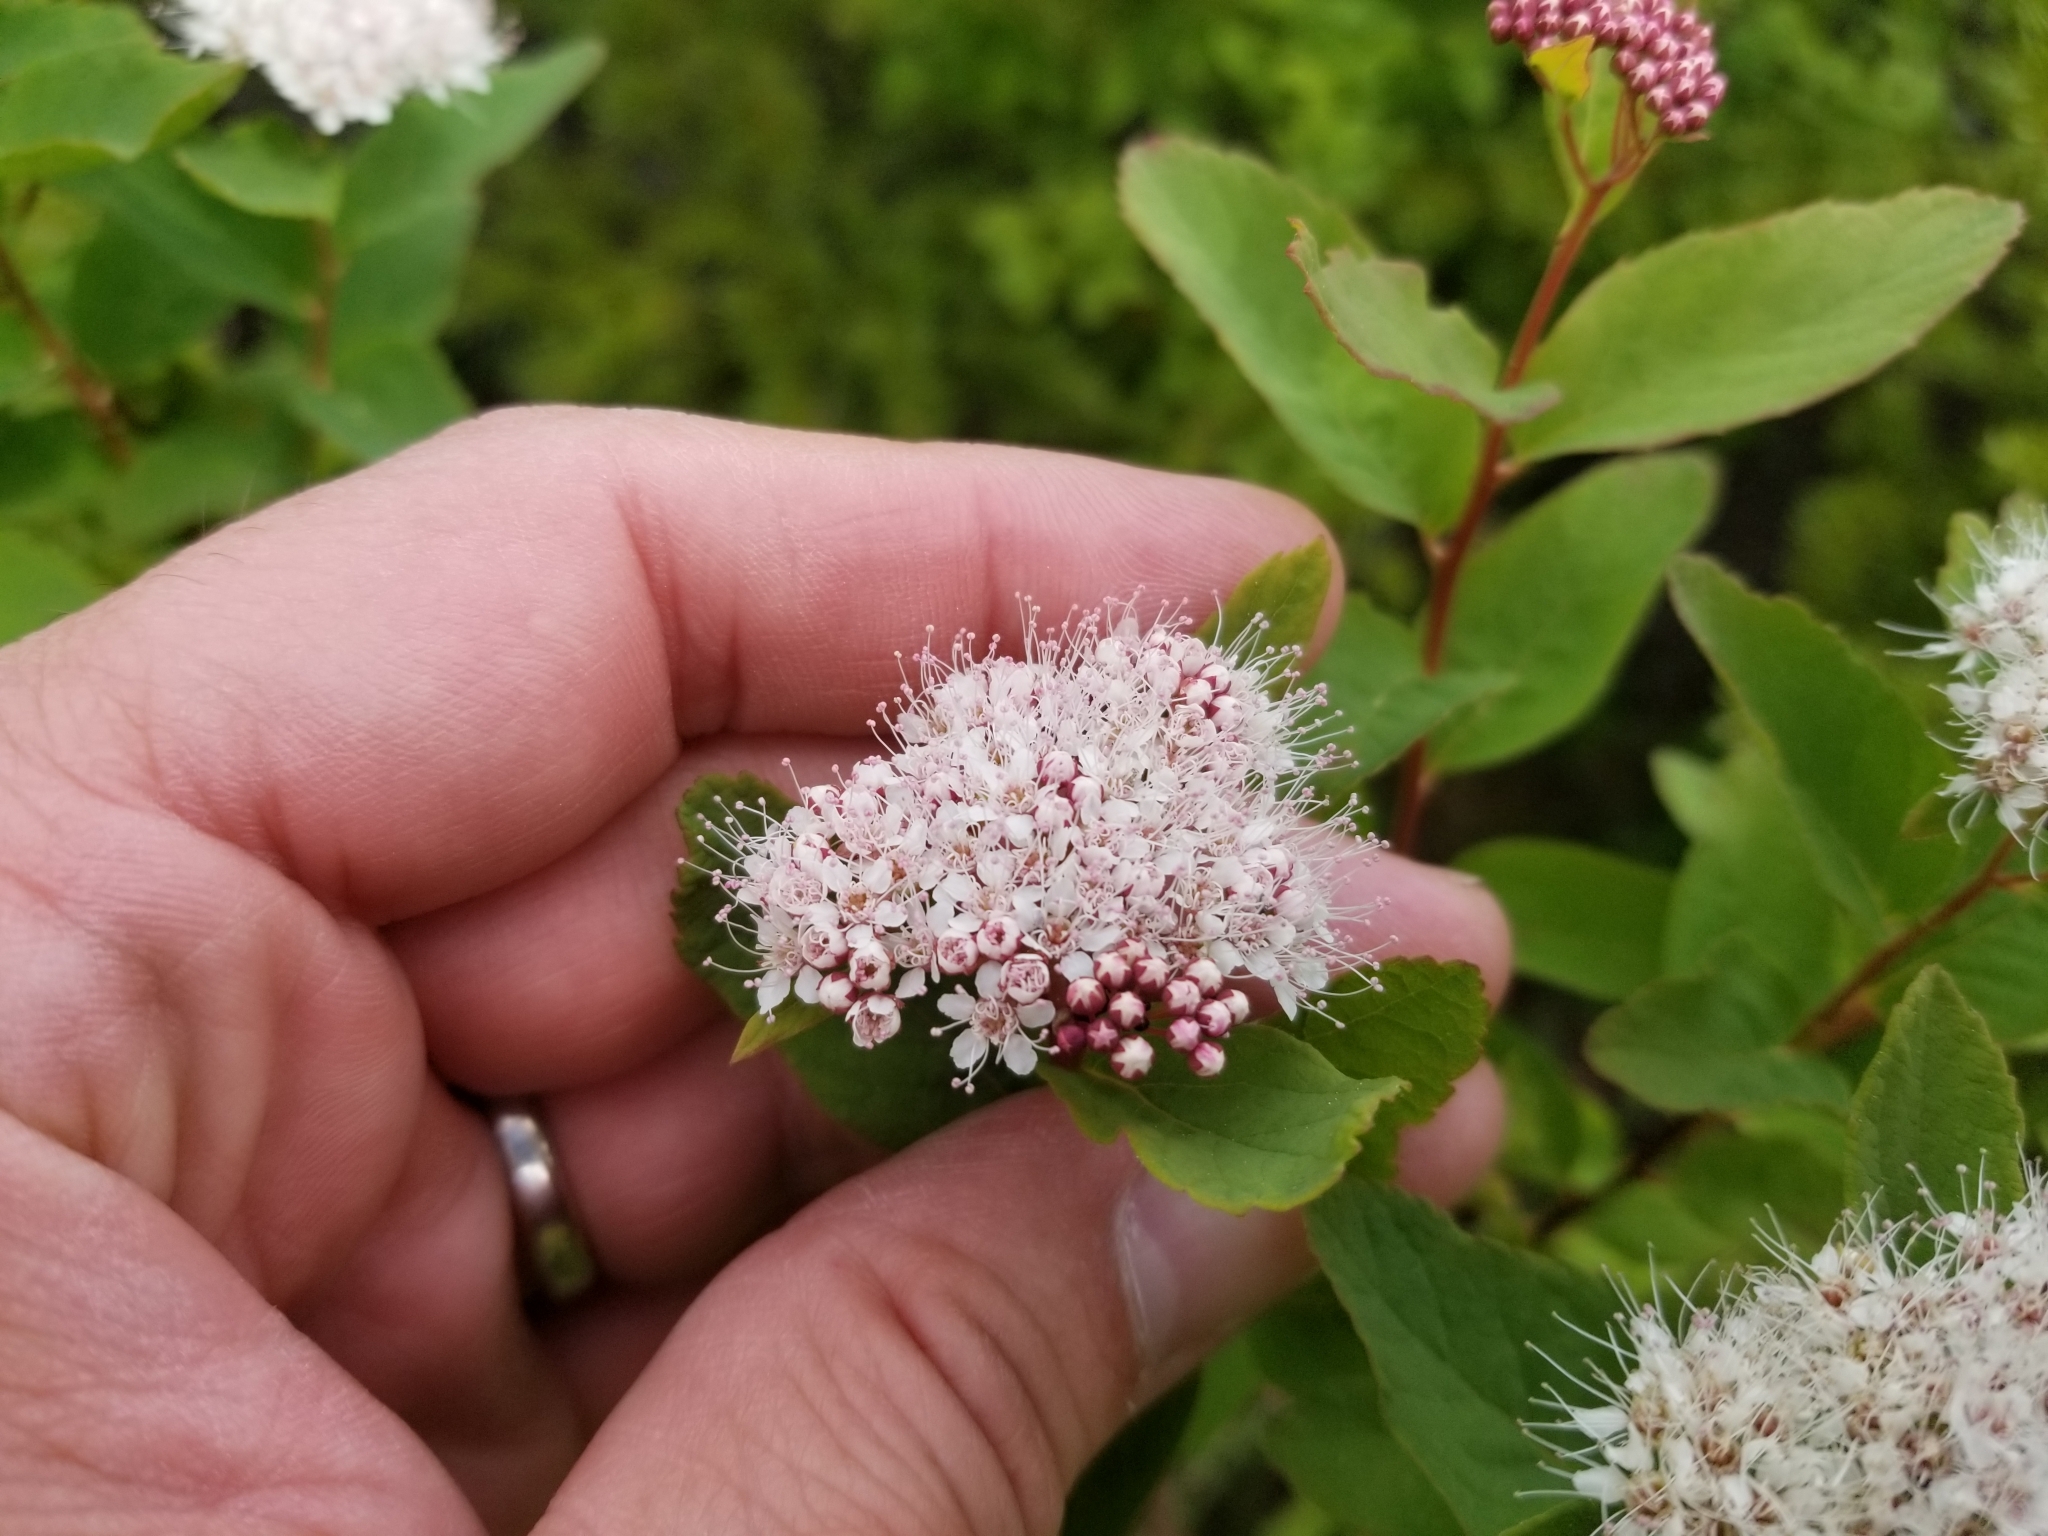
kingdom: Plantae
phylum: Tracheophyta
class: Magnoliopsida
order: Rosales
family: Rosaceae
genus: Spiraea
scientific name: Spiraea stevenii
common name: Steven's meadowsweet
